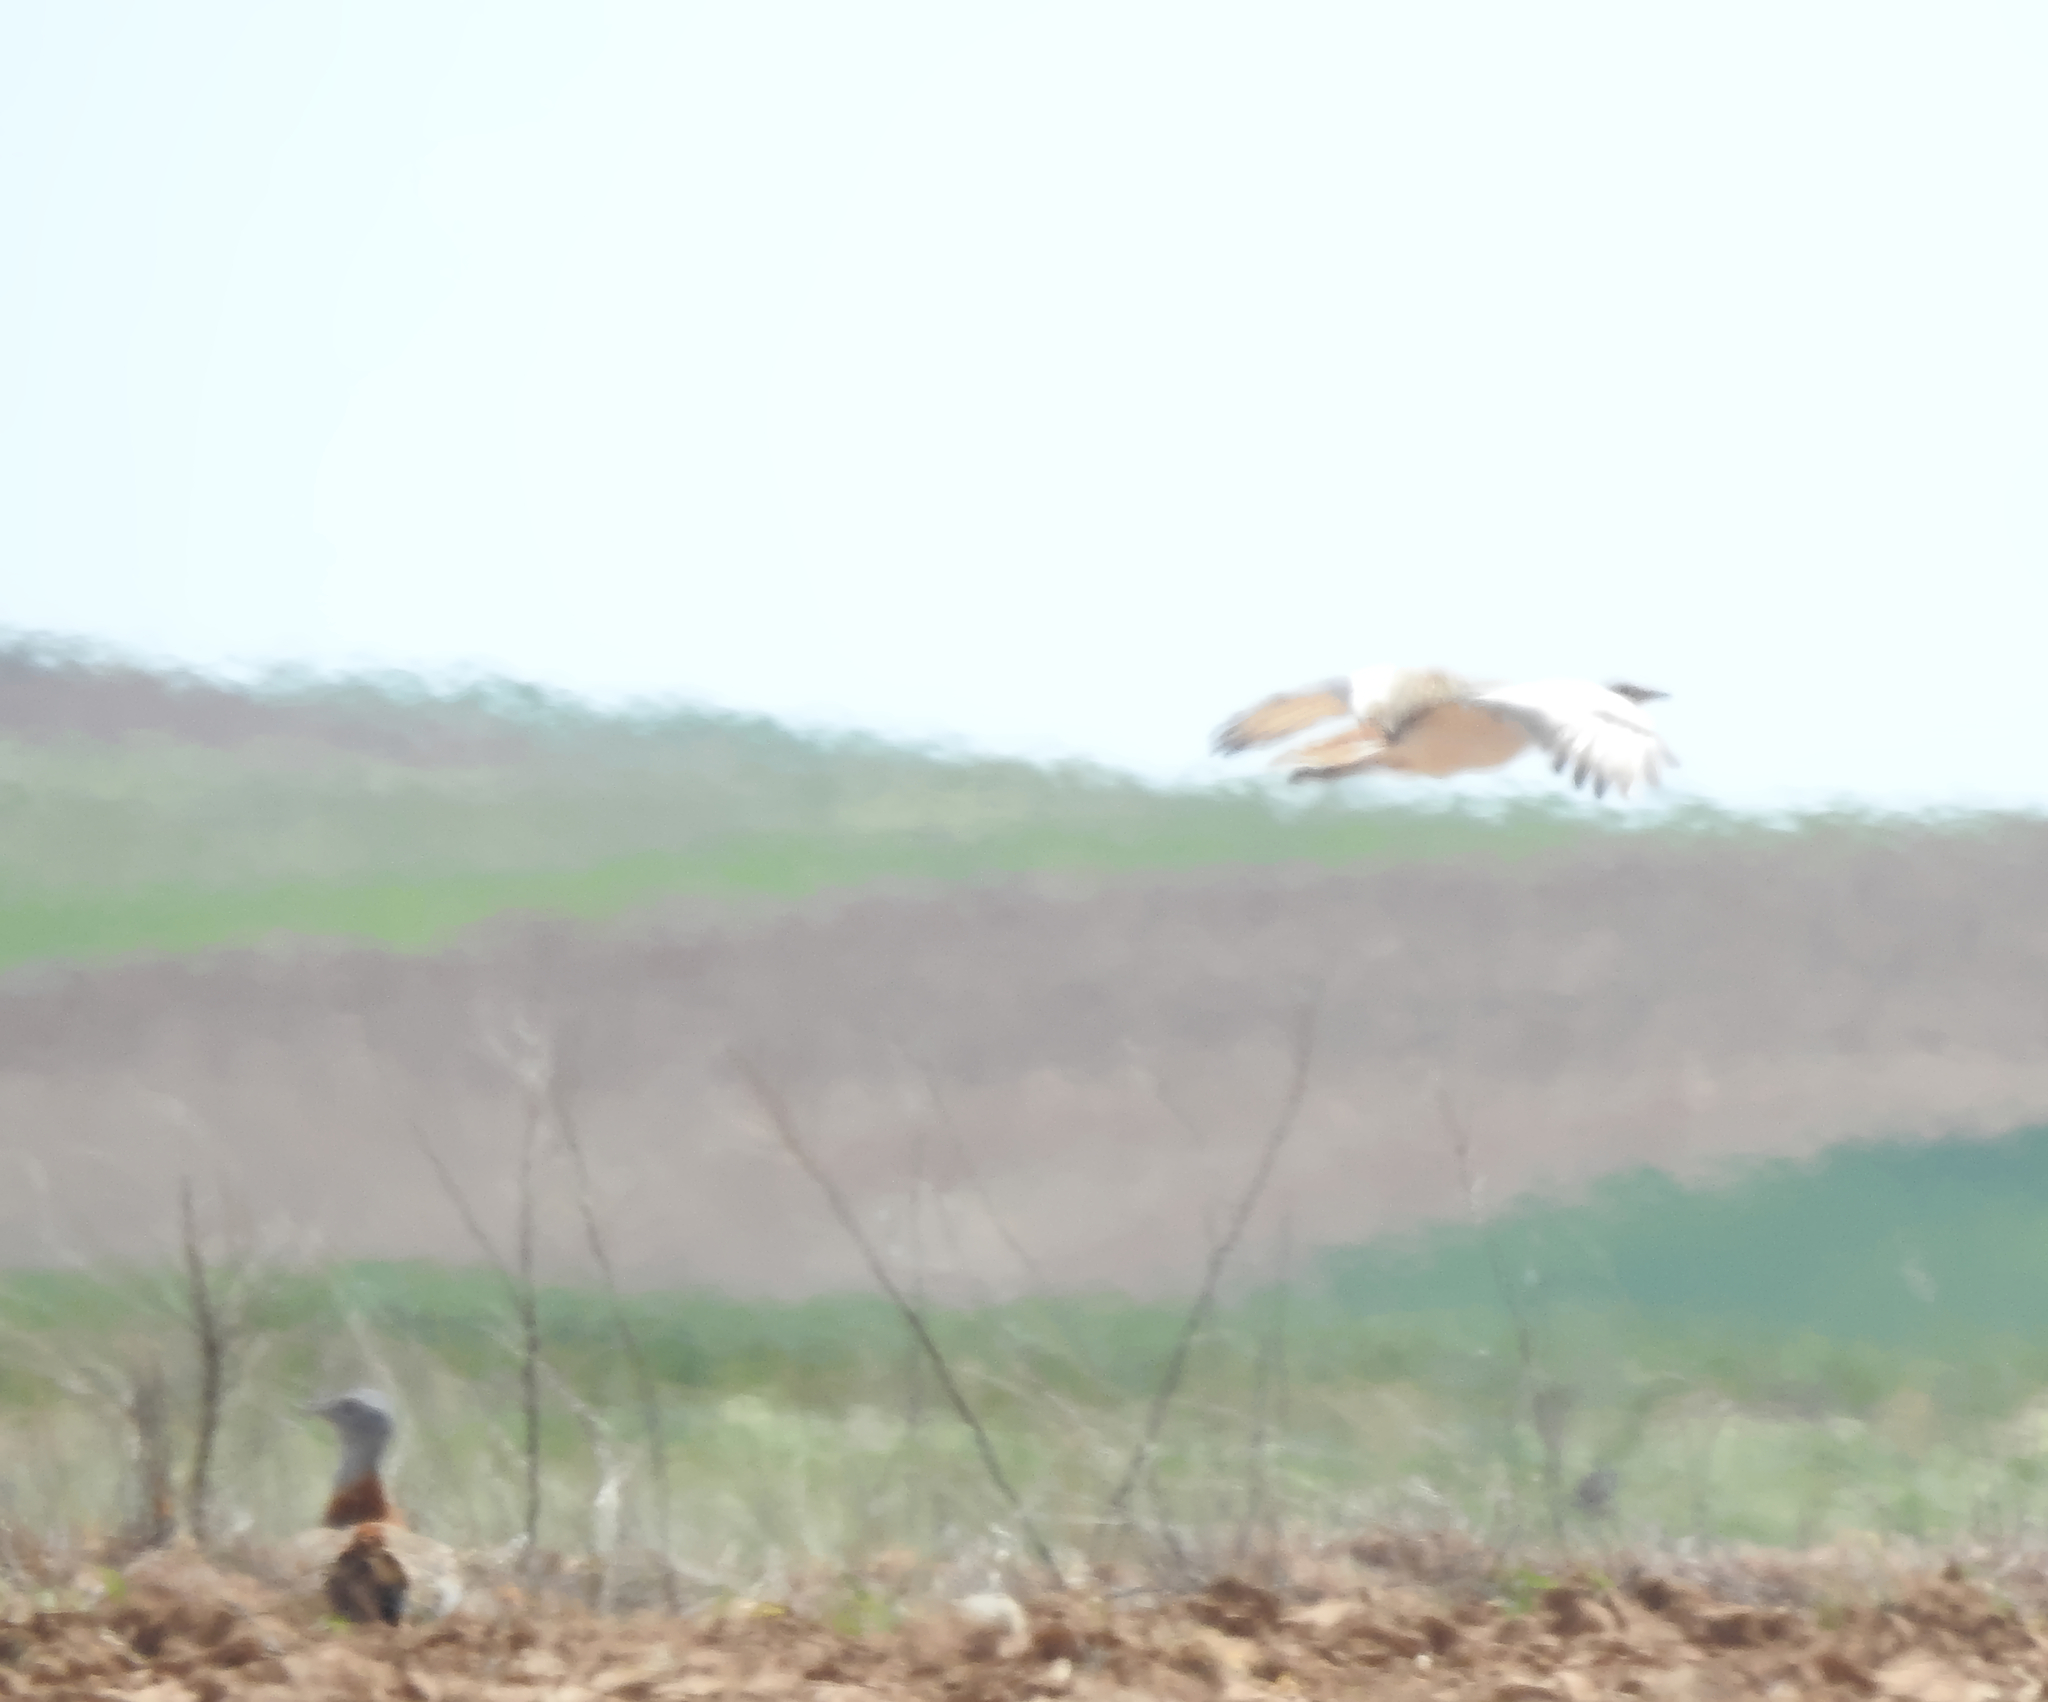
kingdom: Animalia
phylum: Chordata
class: Aves
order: Otidiformes
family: Otididae
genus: Otis
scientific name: Otis tarda
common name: Great bustard
